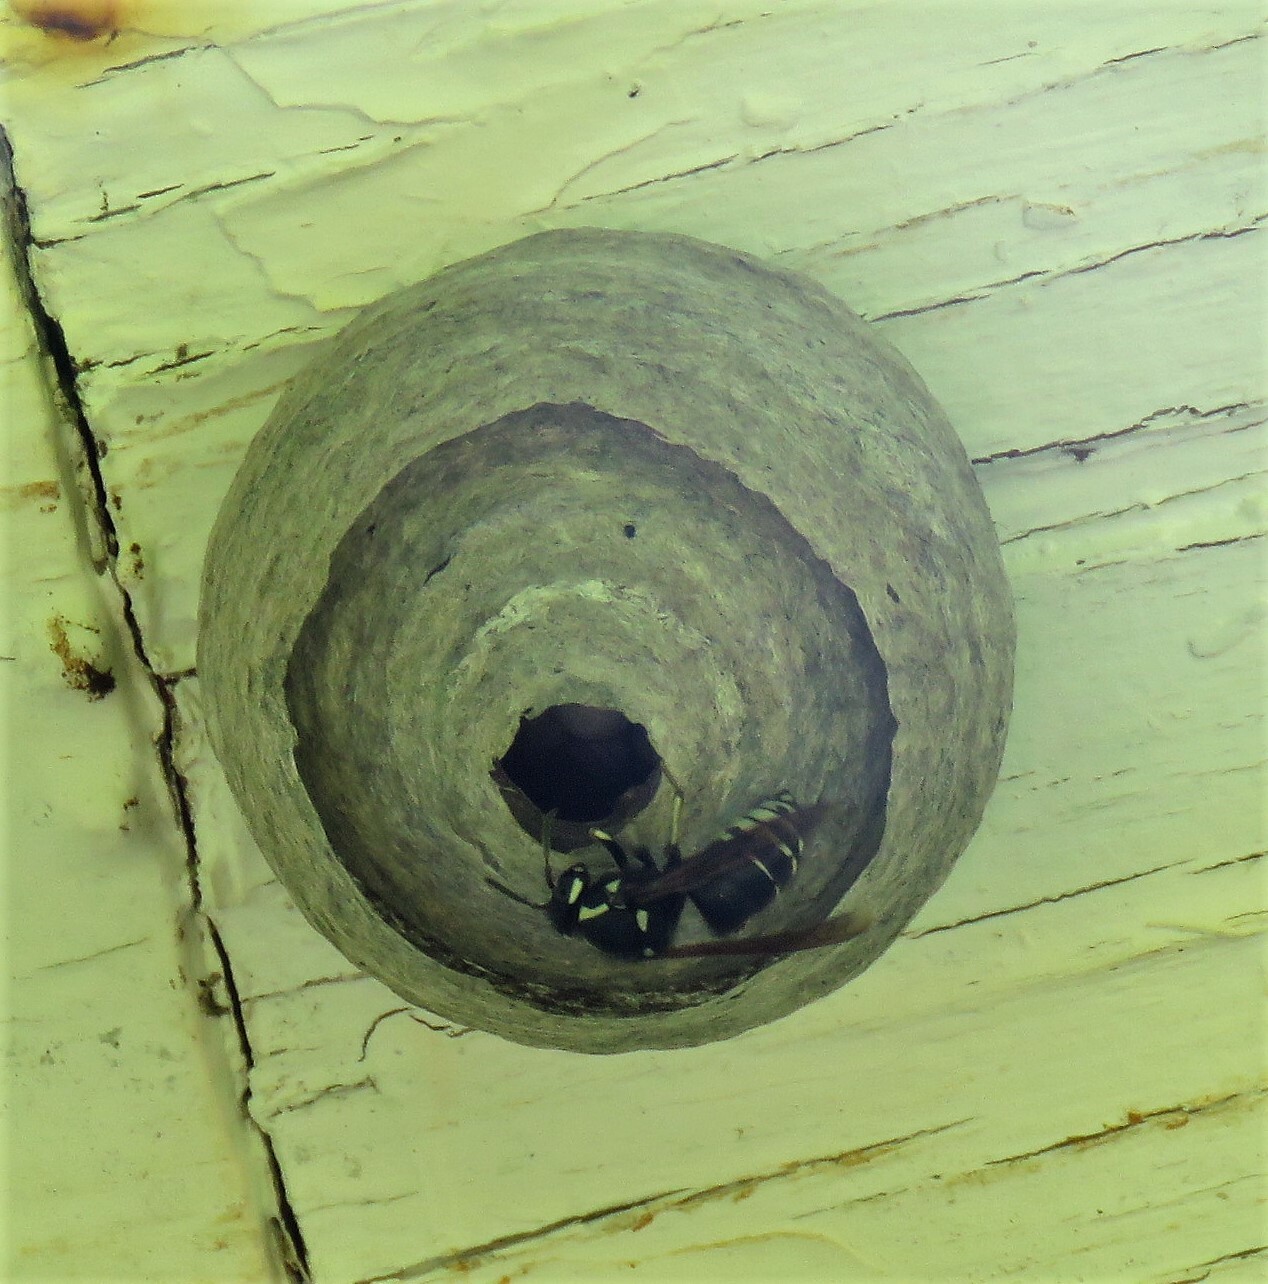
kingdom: Animalia
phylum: Arthropoda
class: Insecta
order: Hymenoptera
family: Vespidae
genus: Dolichovespula
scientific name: Dolichovespula adulterina
